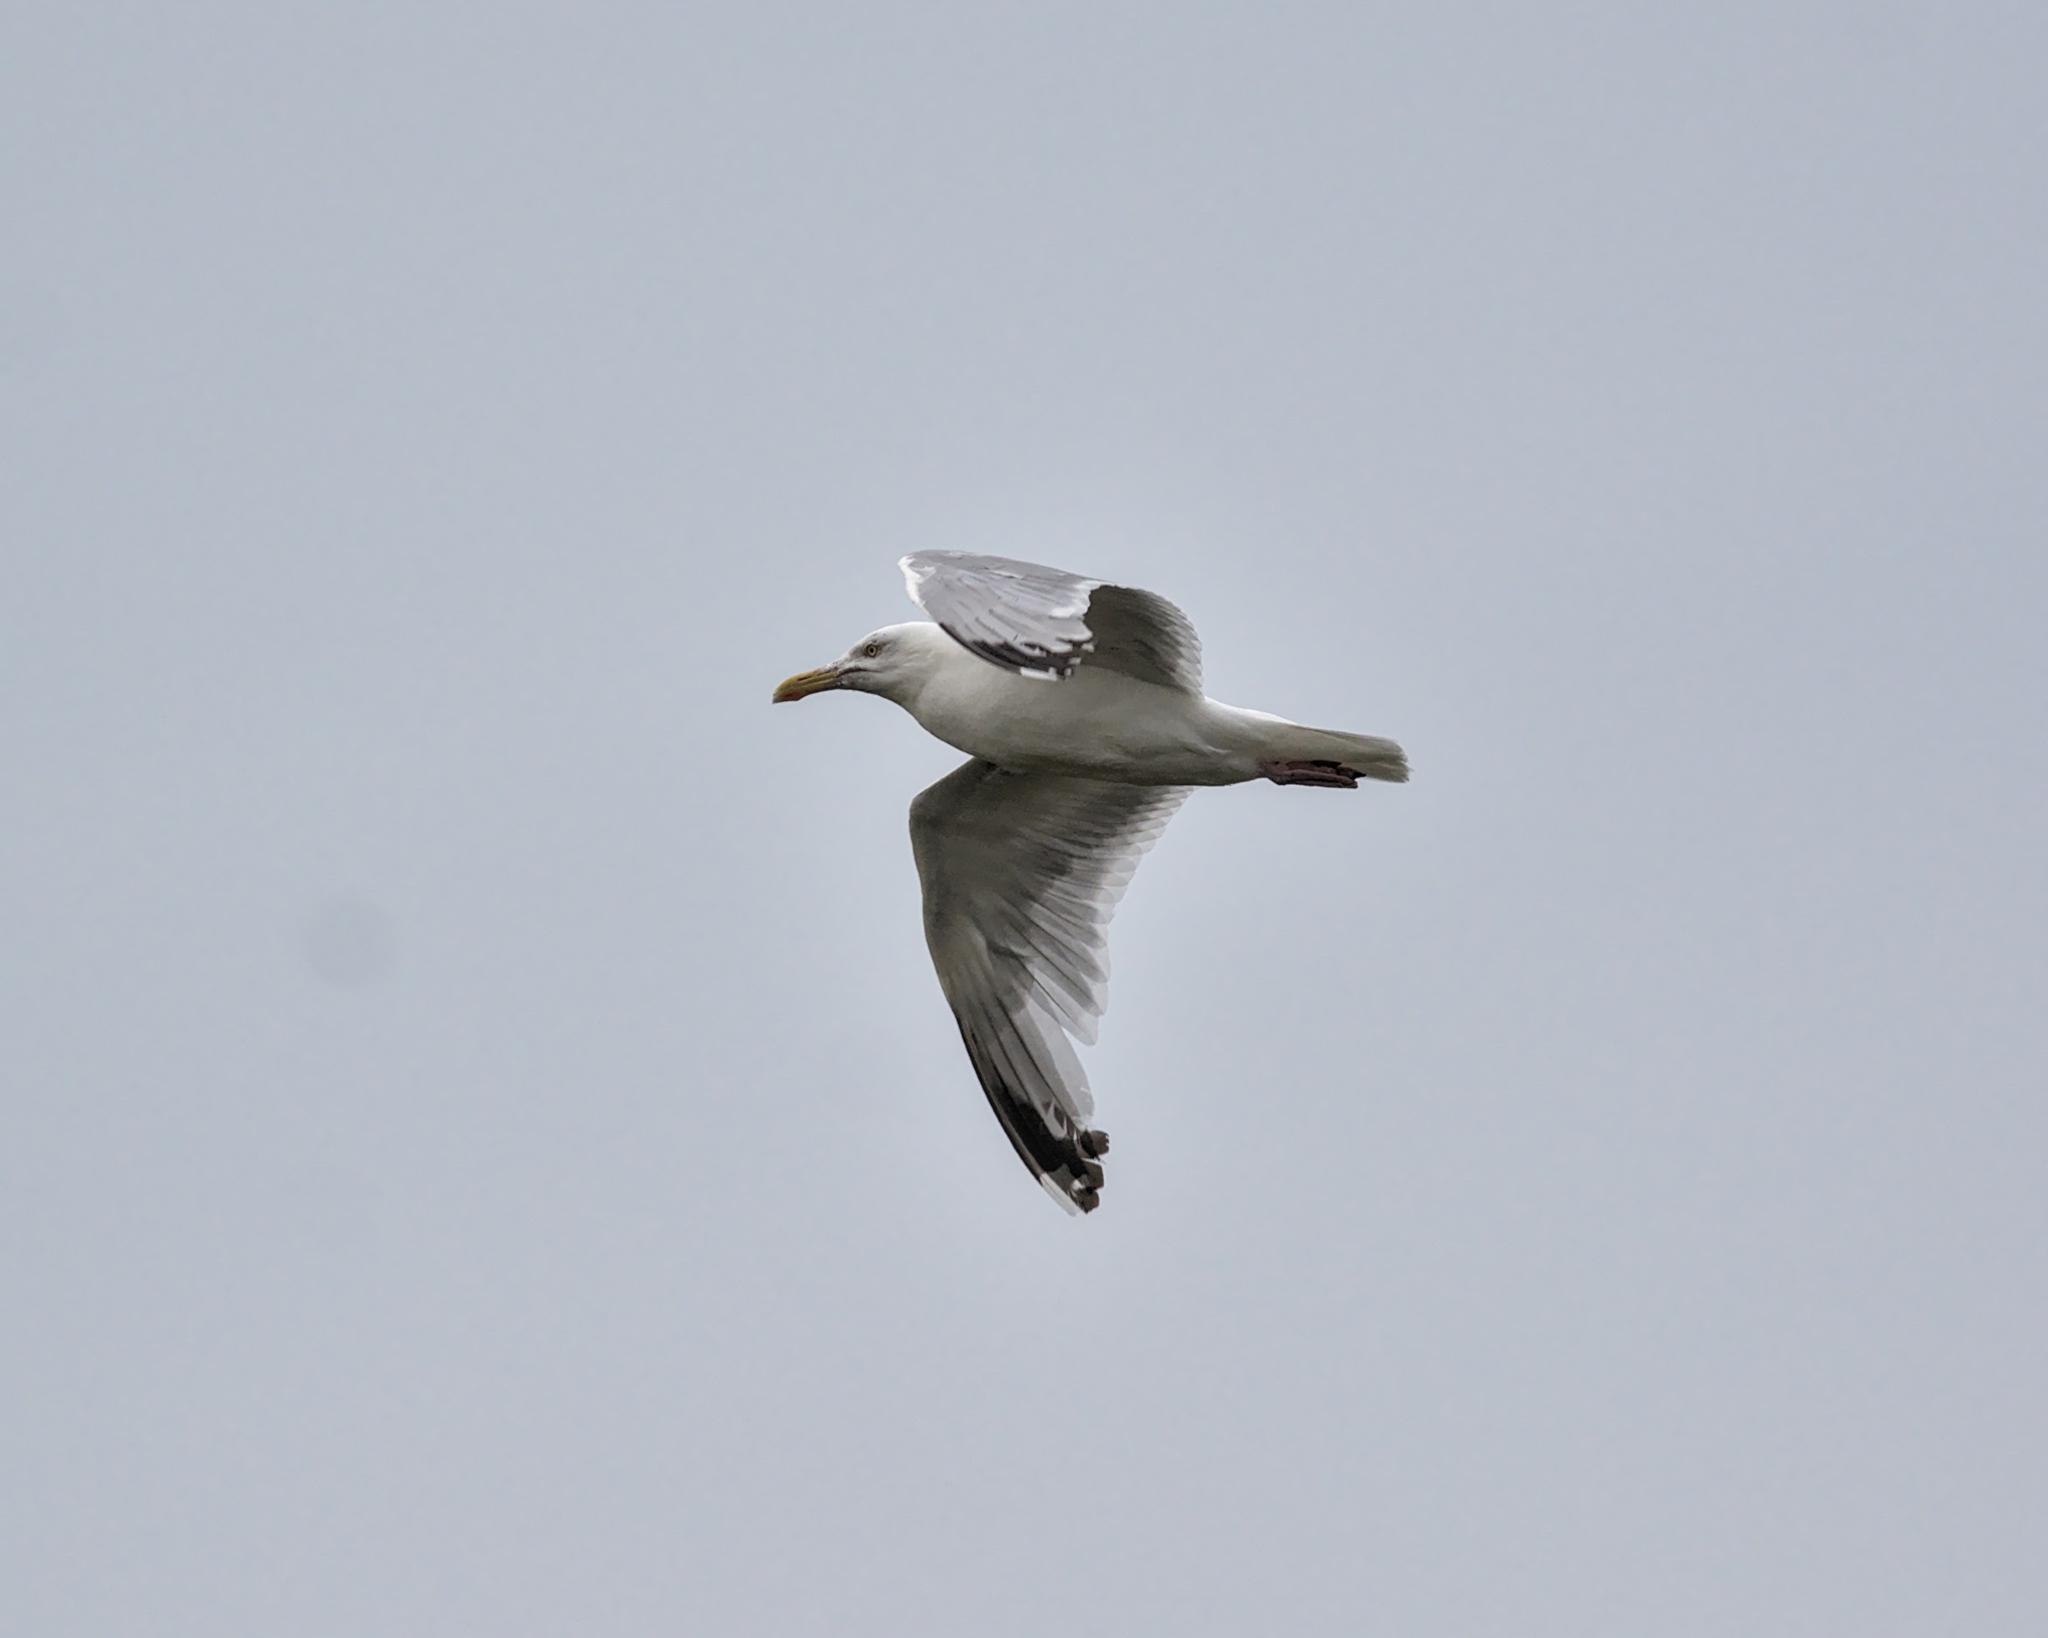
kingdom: Animalia
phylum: Chordata
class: Aves
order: Charadriiformes
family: Laridae
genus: Larus
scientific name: Larus argentatus
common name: Herring gull
